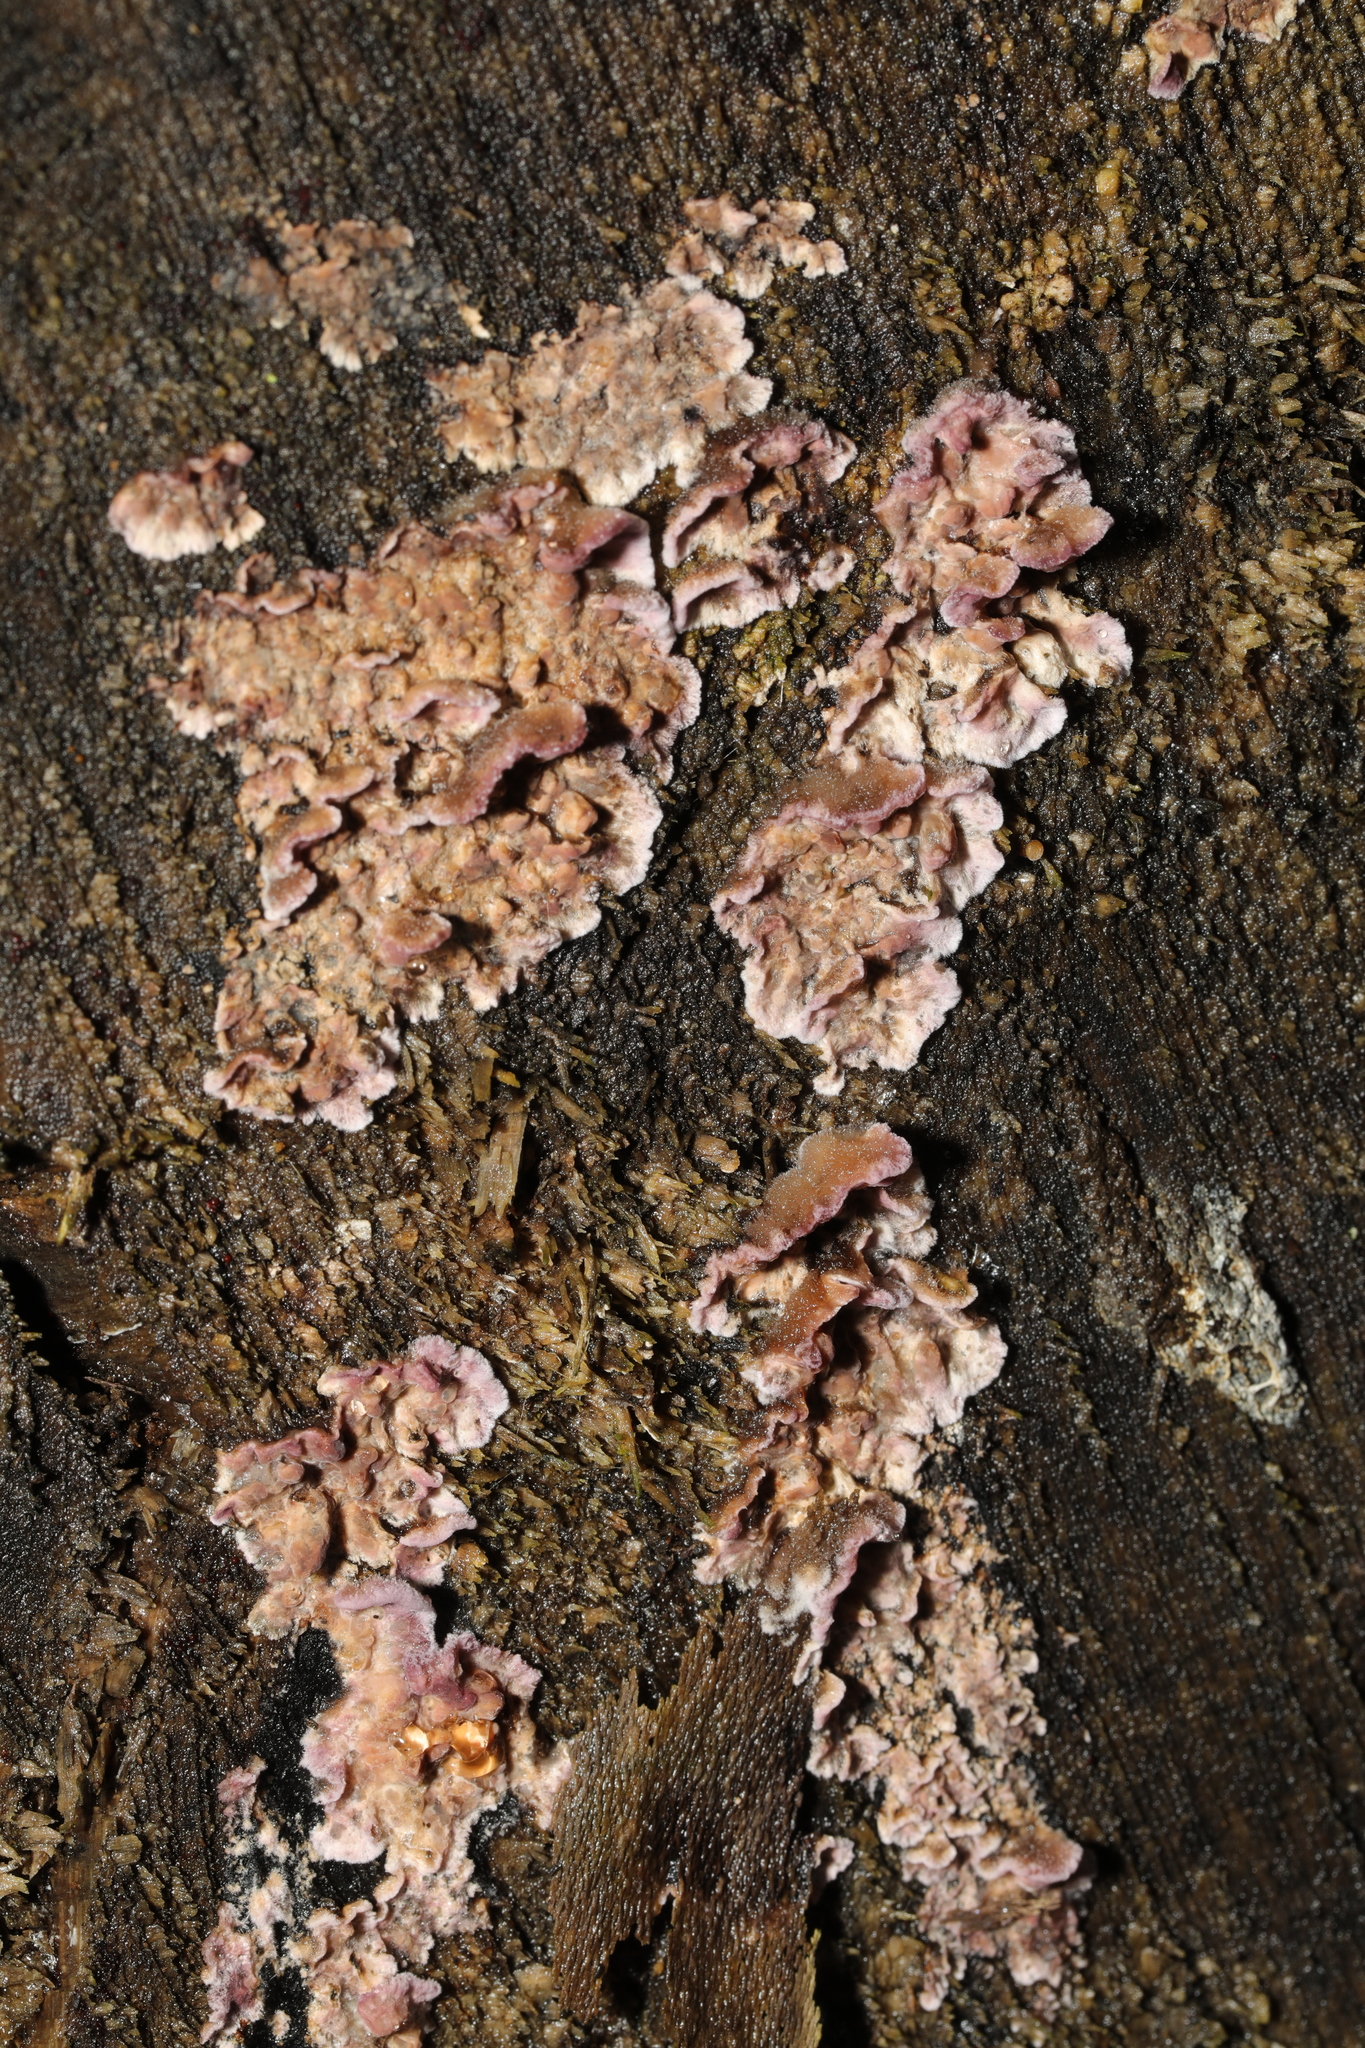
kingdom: Fungi
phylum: Basidiomycota
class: Agaricomycetes
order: Agaricales
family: Cyphellaceae
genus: Chondrostereum
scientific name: Chondrostereum purpureum
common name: Silver leaf disease
